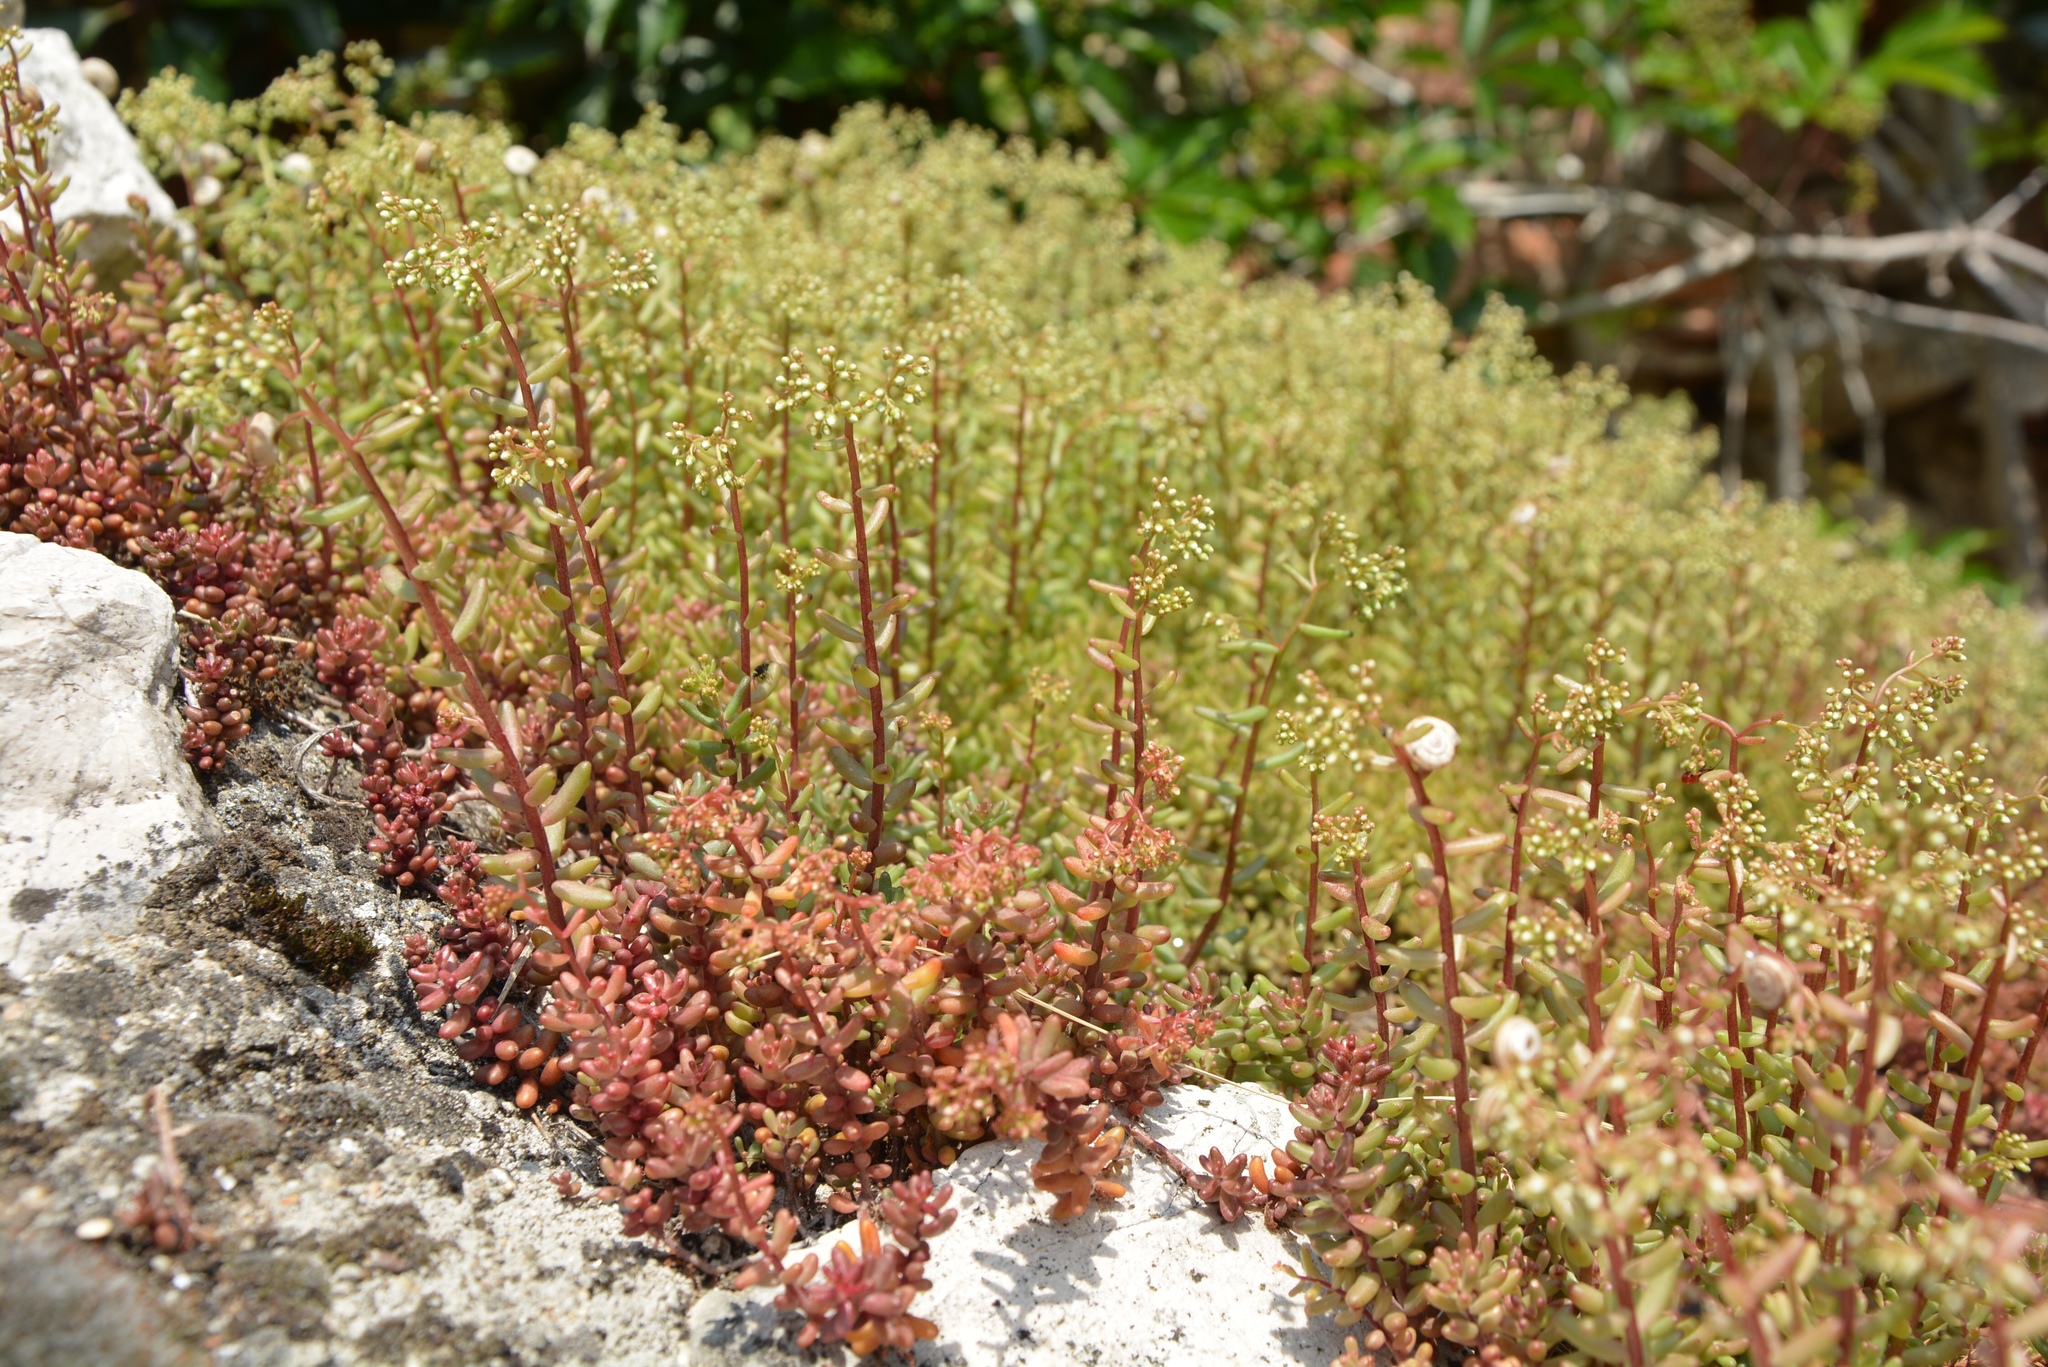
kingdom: Plantae
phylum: Tracheophyta
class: Magnoliopsida
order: Saxifragales
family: Crassulaceae
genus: Sedum
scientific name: Sedum album
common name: White stonecrop
